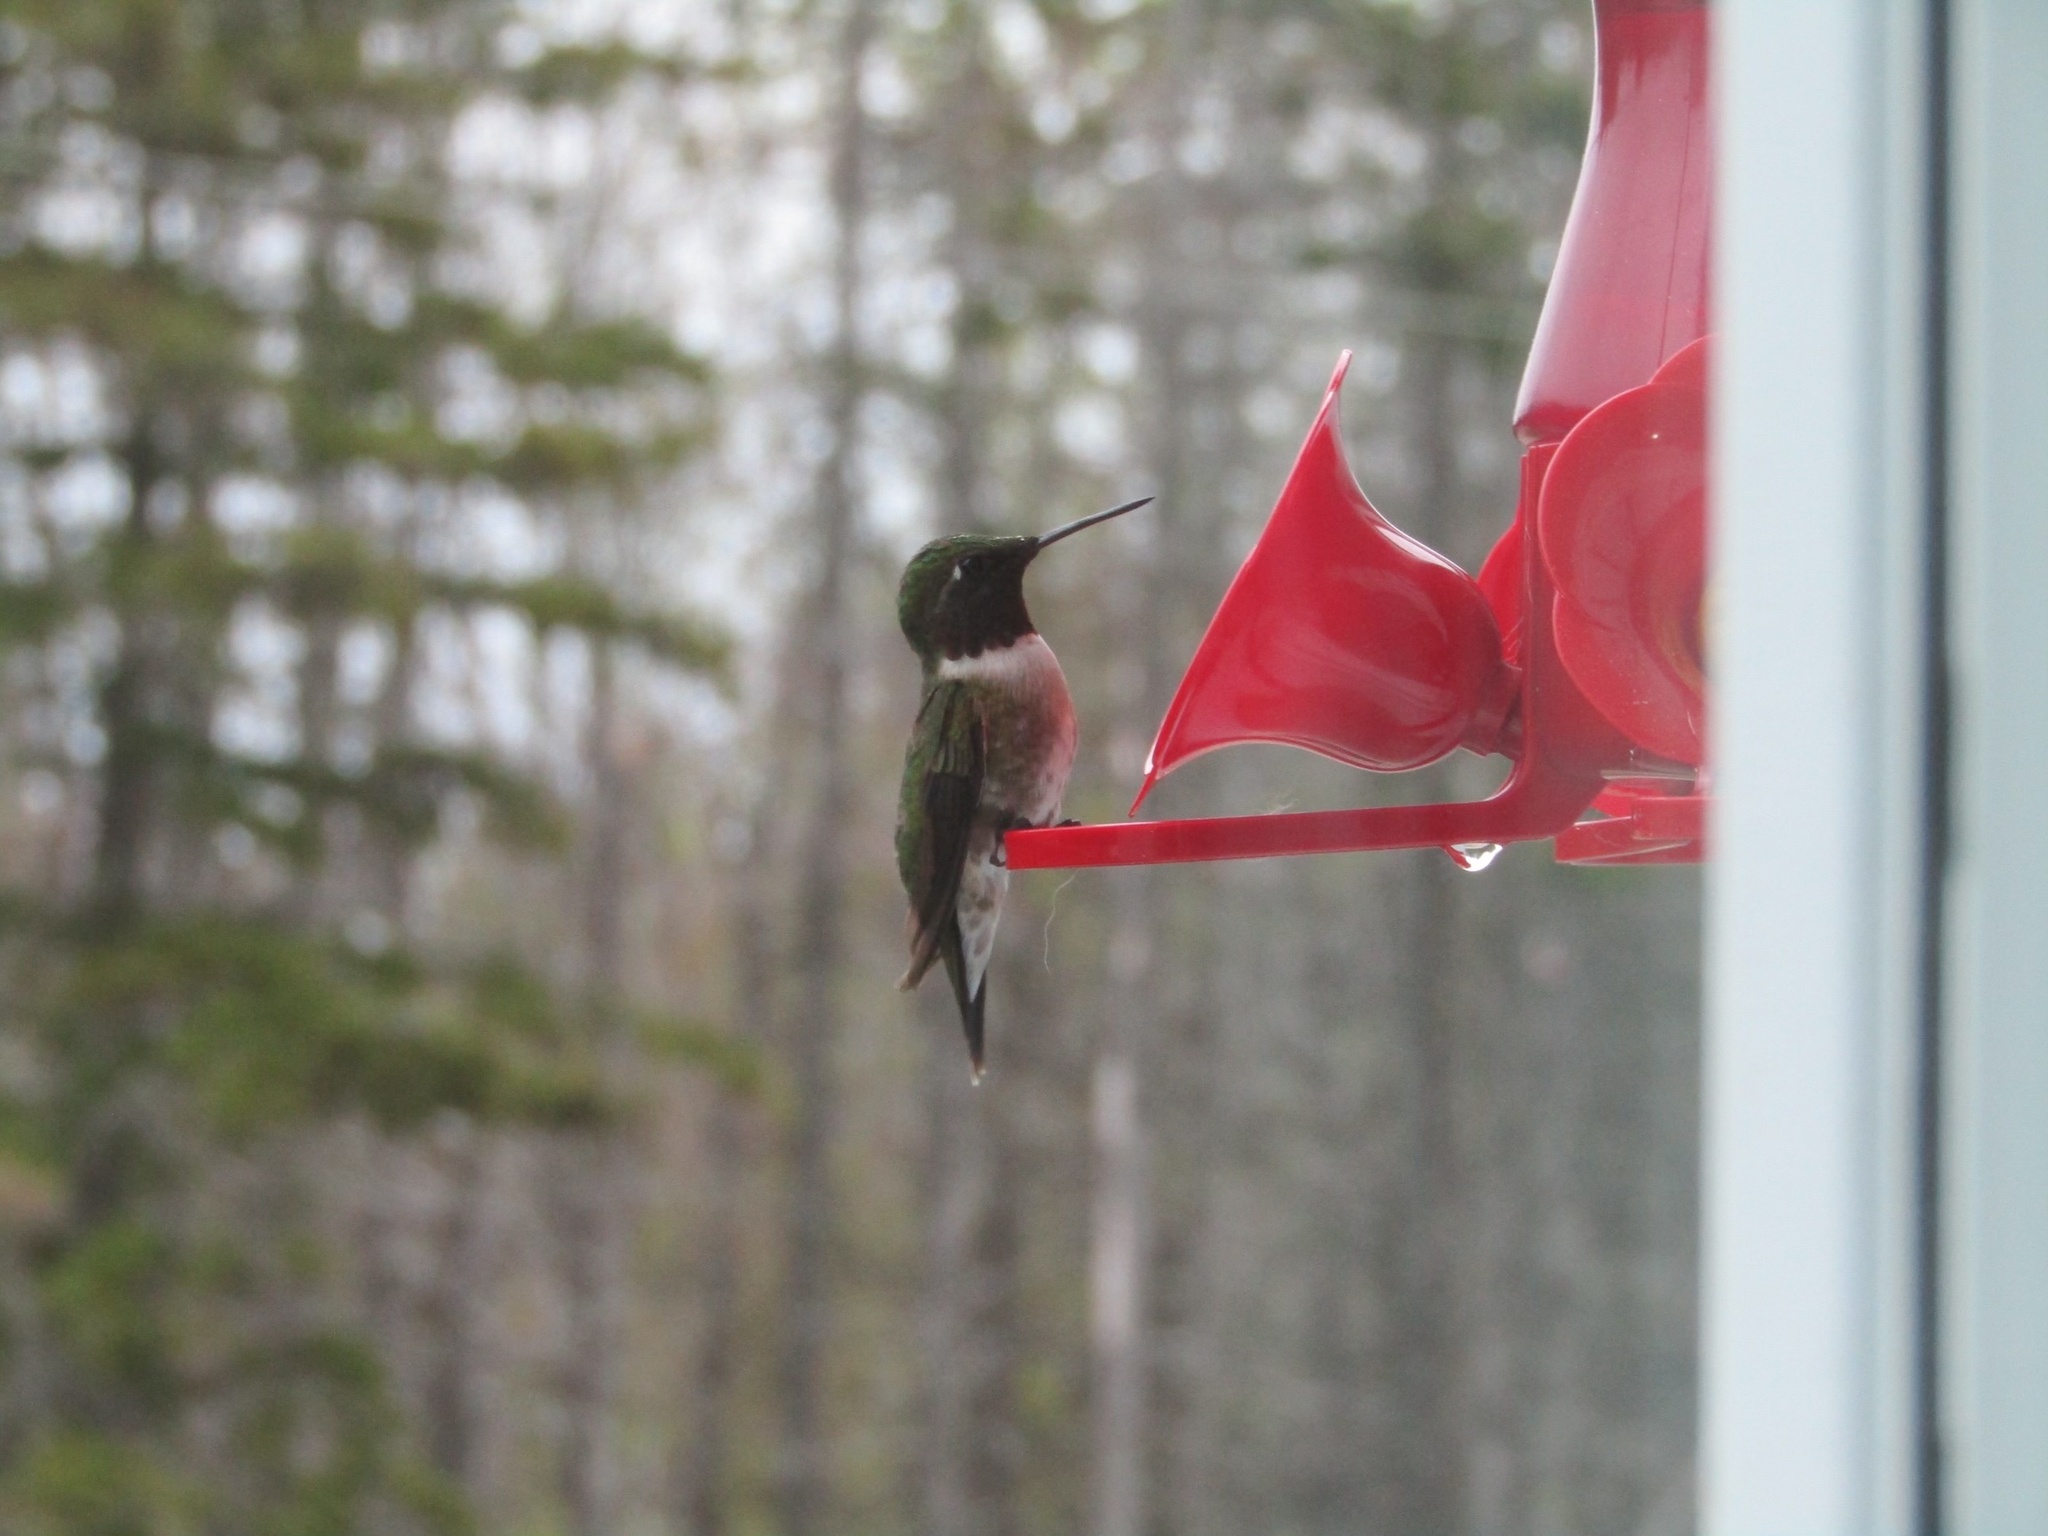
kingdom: Animalia
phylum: Chordata
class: Aves
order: Apodiformes
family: Trochilidae
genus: Archilochus
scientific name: Archilochus colubris
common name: Ruby-throated hummingbird
